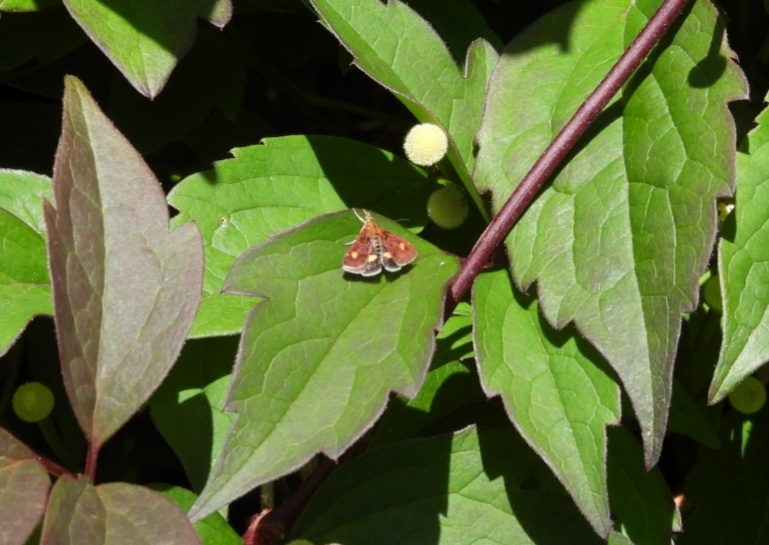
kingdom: Animalia
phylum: Arthropoda
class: Insecta
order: Lepidoptera
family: Crambidae
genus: Pyrausta
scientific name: Pyrausta aurata
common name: Small purple & gold
